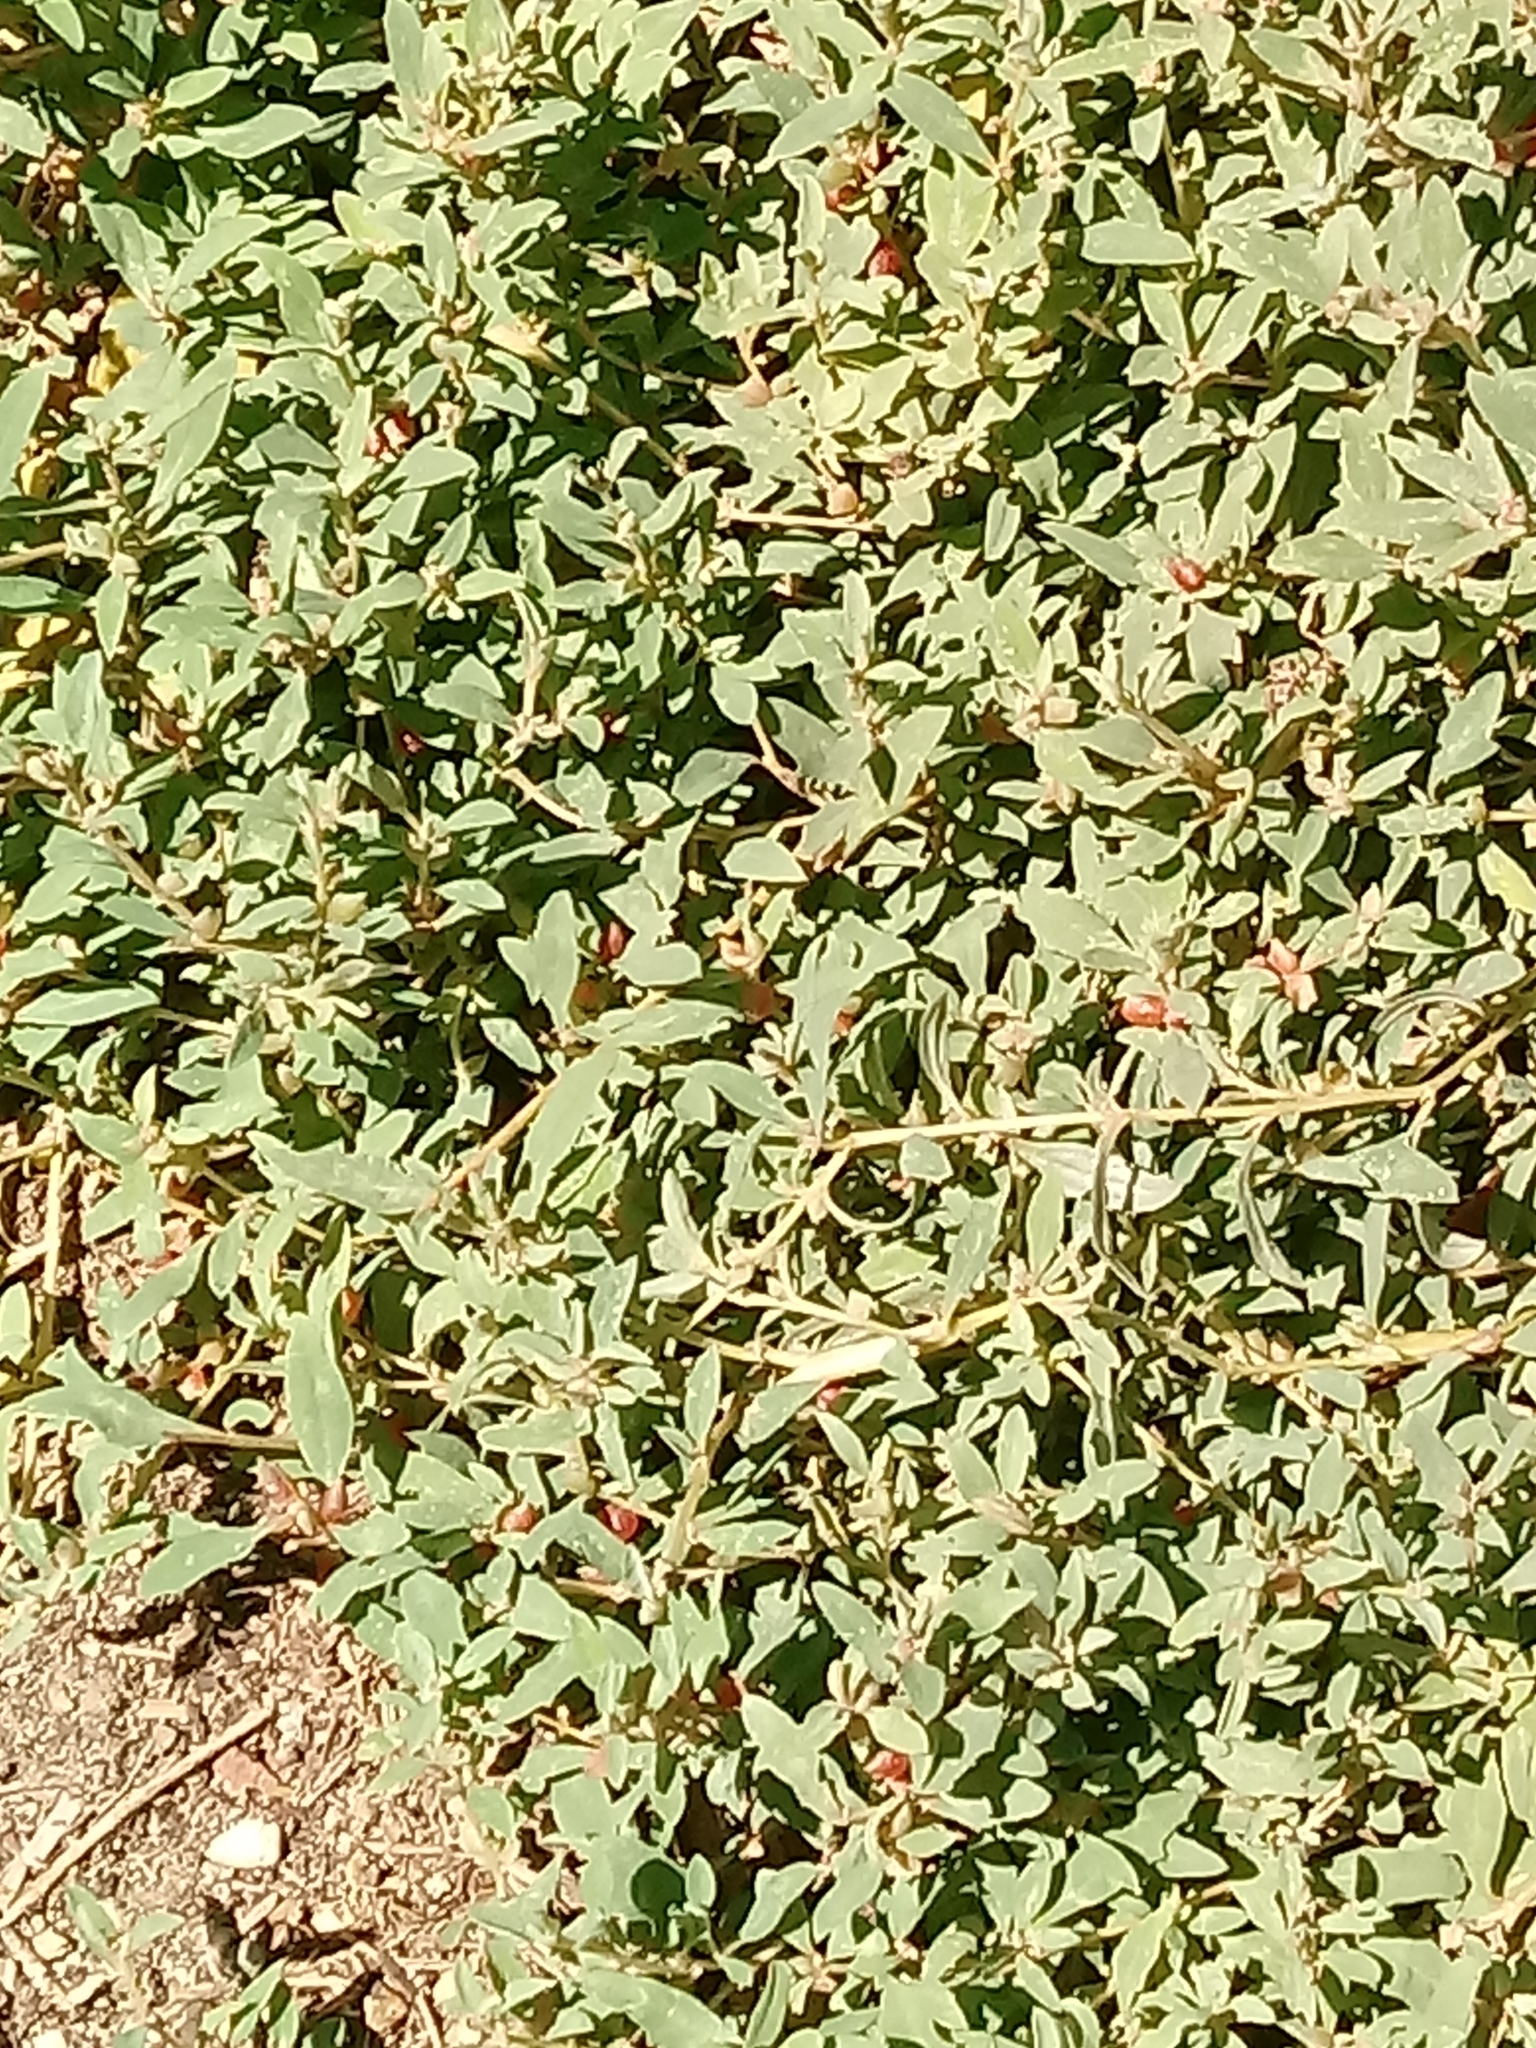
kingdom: Plantae
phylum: Tracheophyta
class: Magnoliopsida
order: Caryophyllales
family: Amaranthaceae
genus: Atriplex
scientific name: Atriplex semibaccata
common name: Australian saltbush
